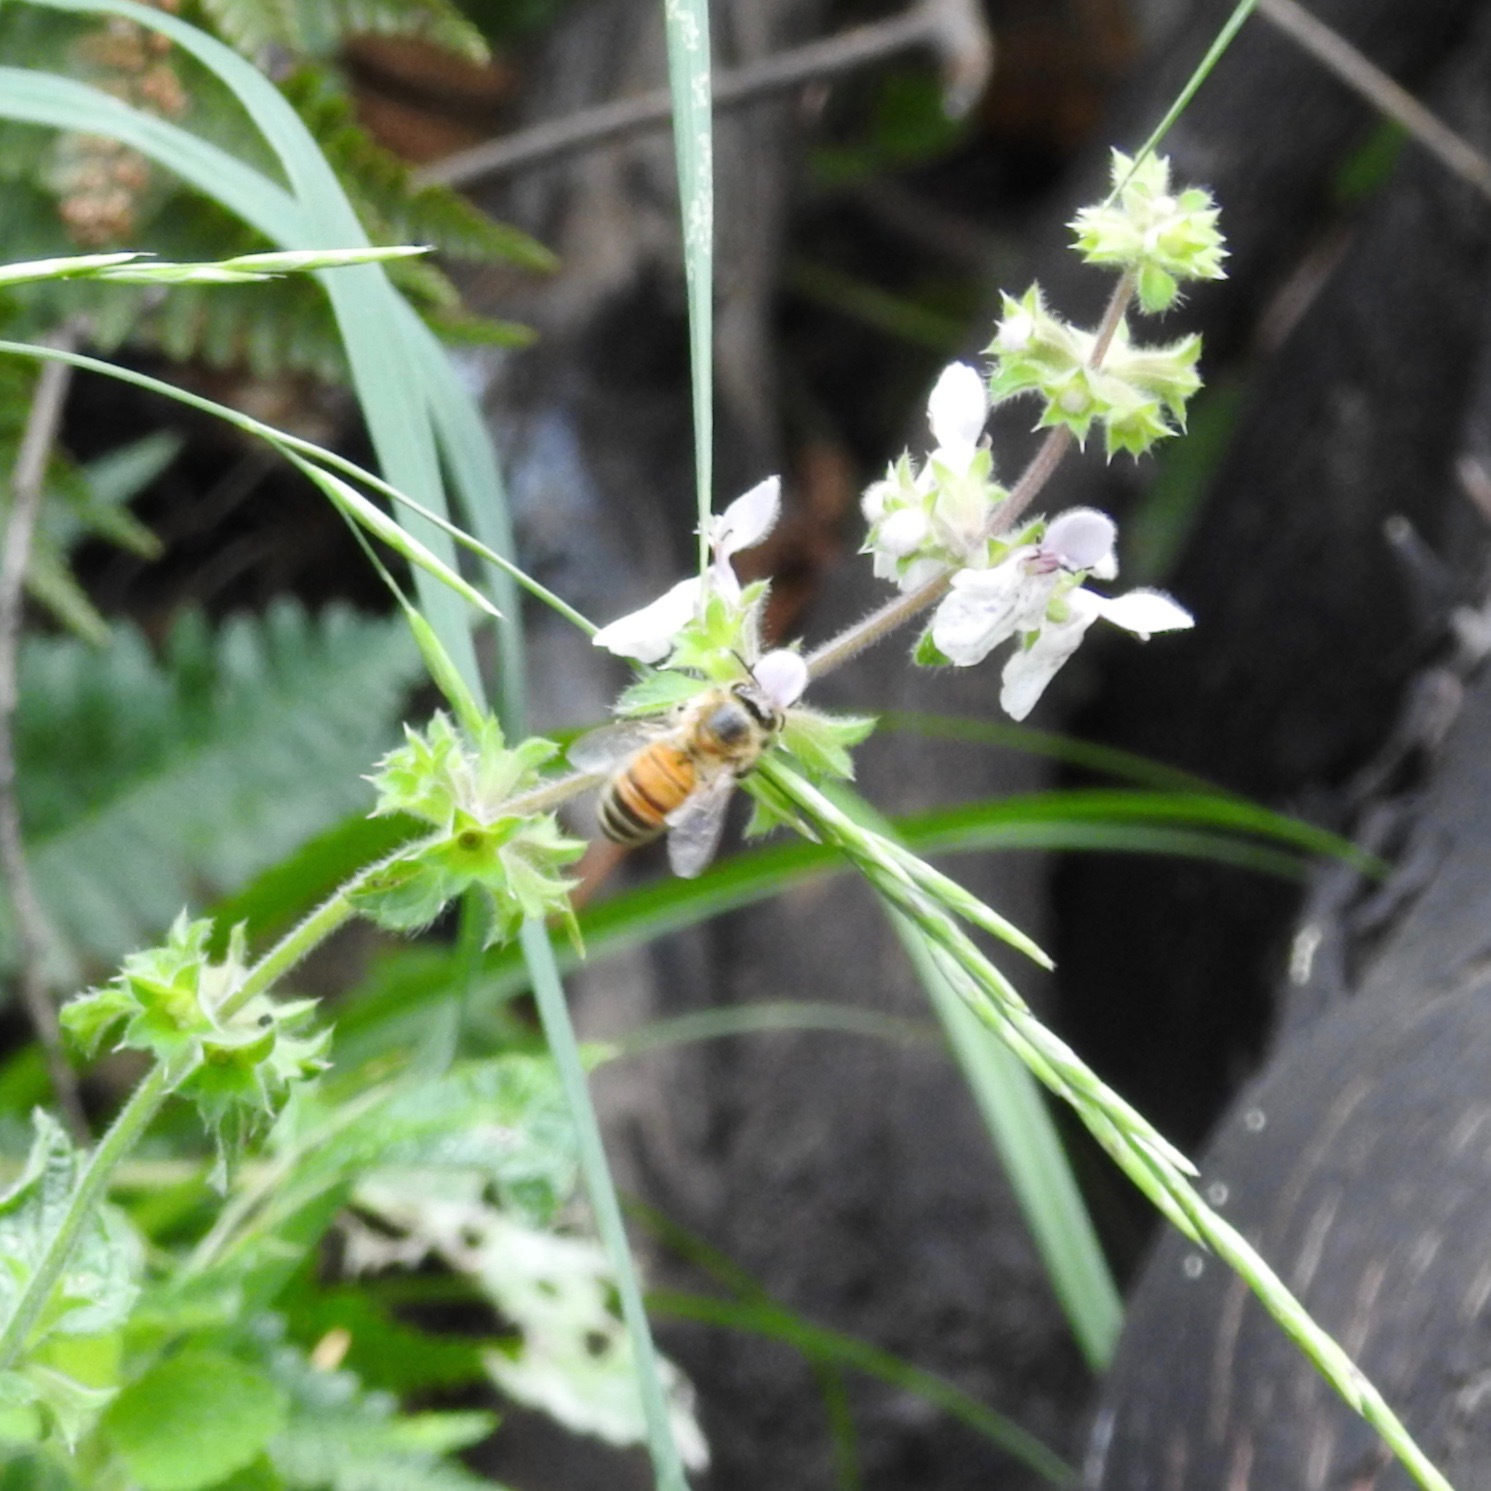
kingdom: Animalia
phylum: Arthropoda
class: Insecta
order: Hymenoptera
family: Apidae
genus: Apis
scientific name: Apis mellifera
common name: Honey bee
